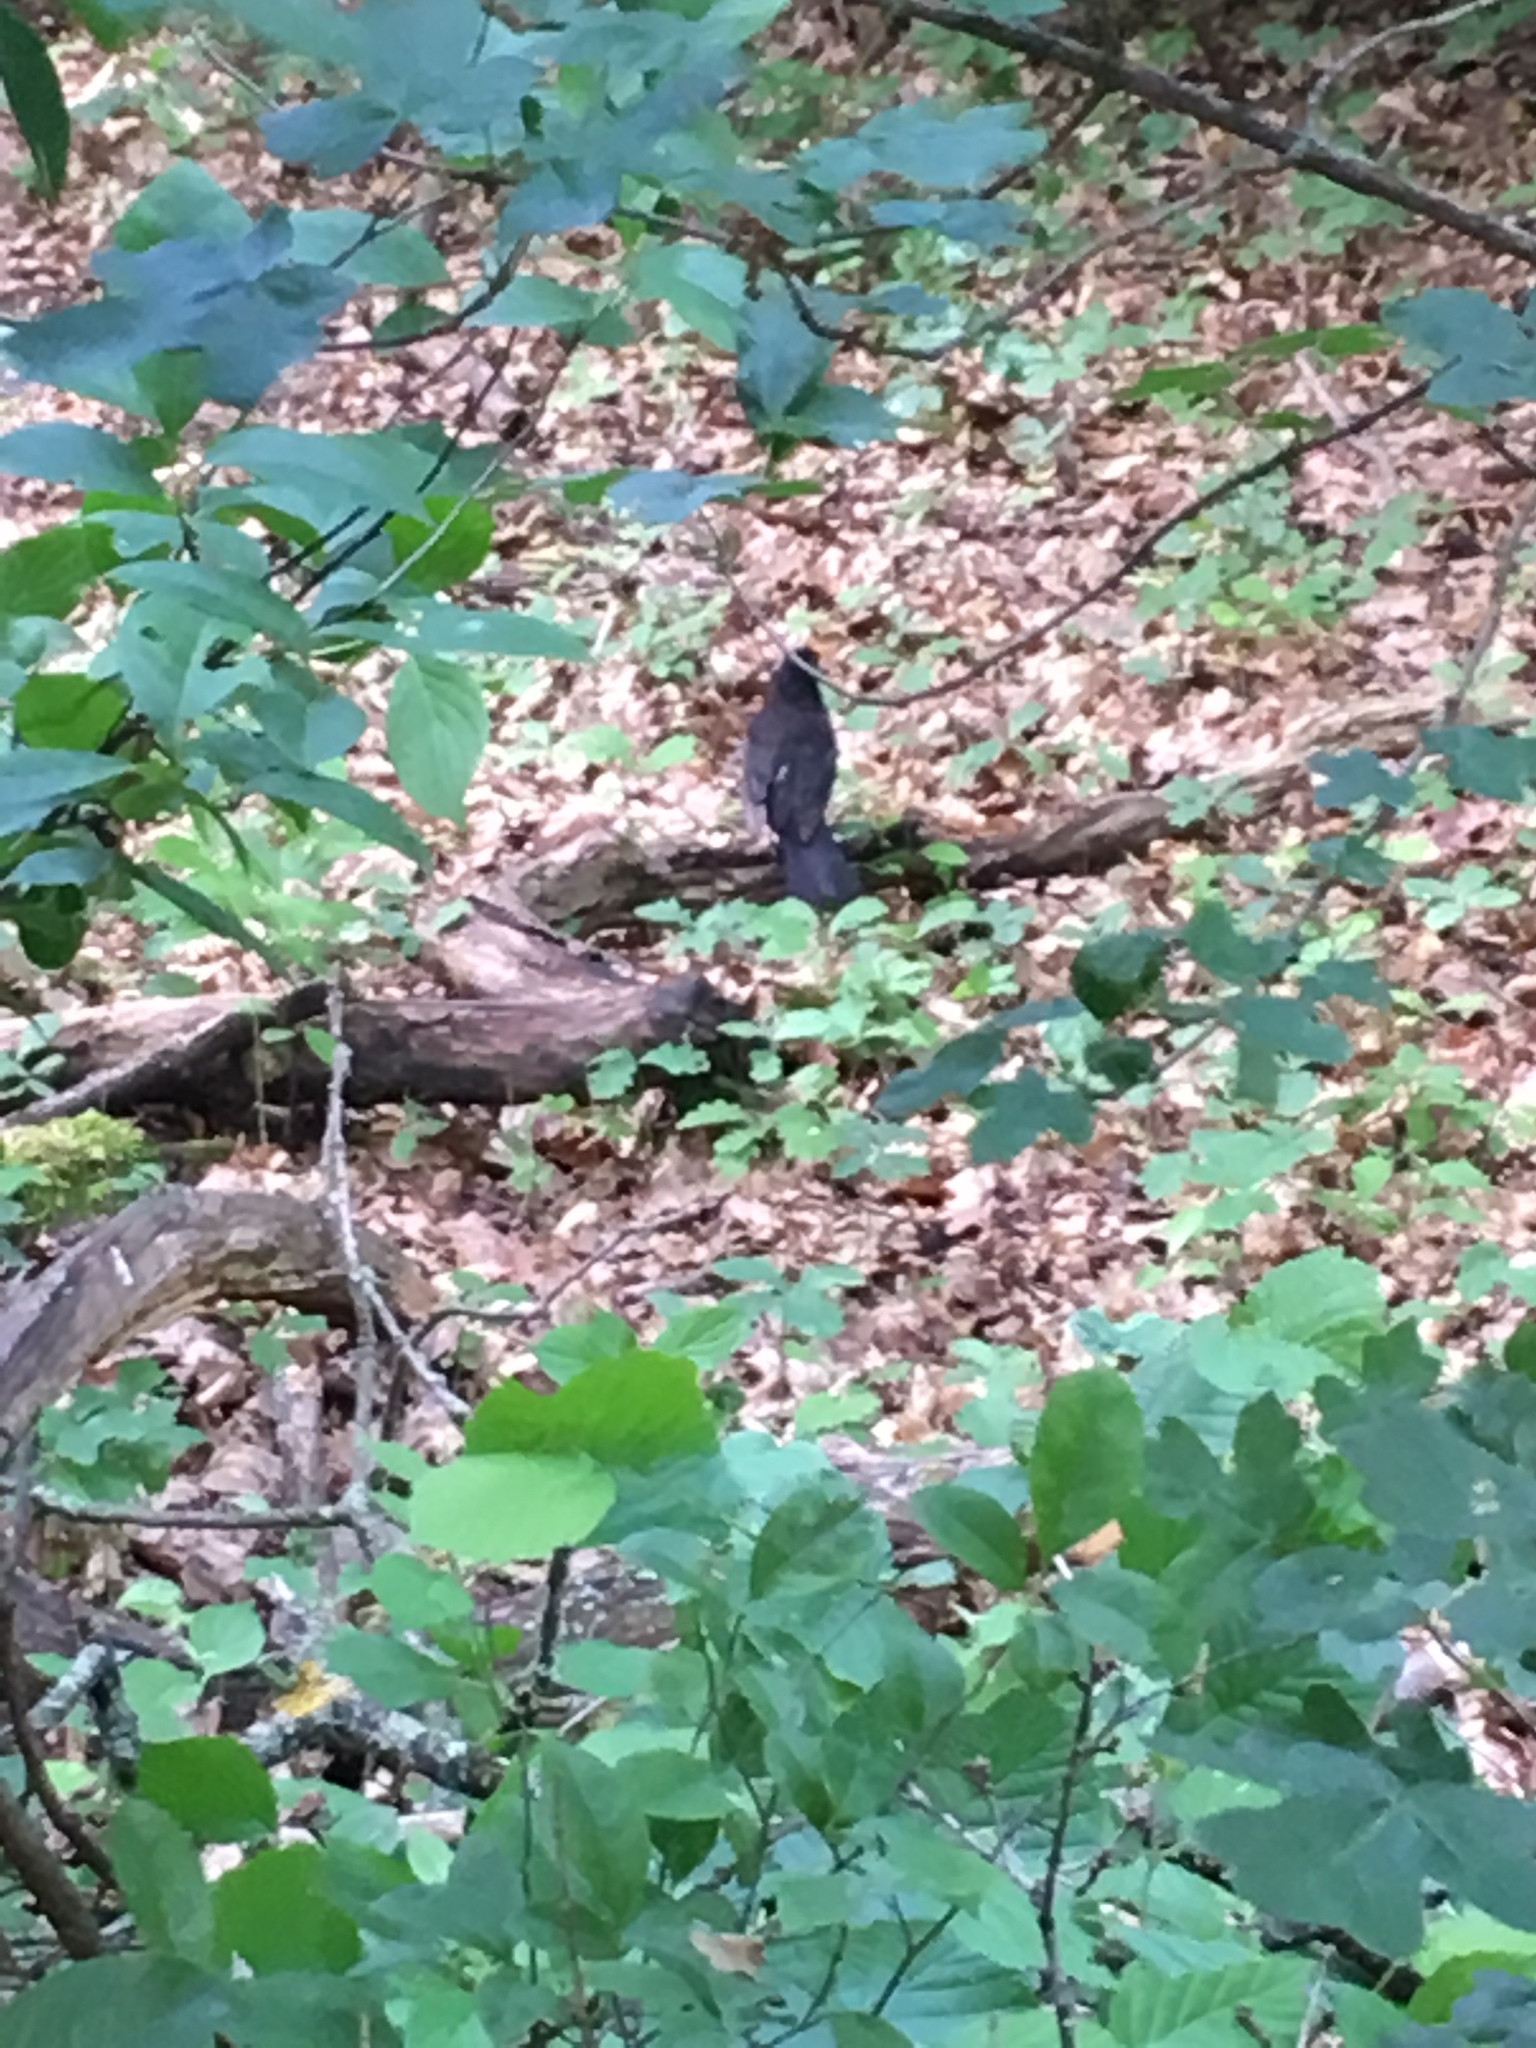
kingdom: Animalia
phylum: Chordata
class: Aves
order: Passeriformes
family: Turdidae
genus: Turdus
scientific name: Turdus merula
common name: Common blackbird
